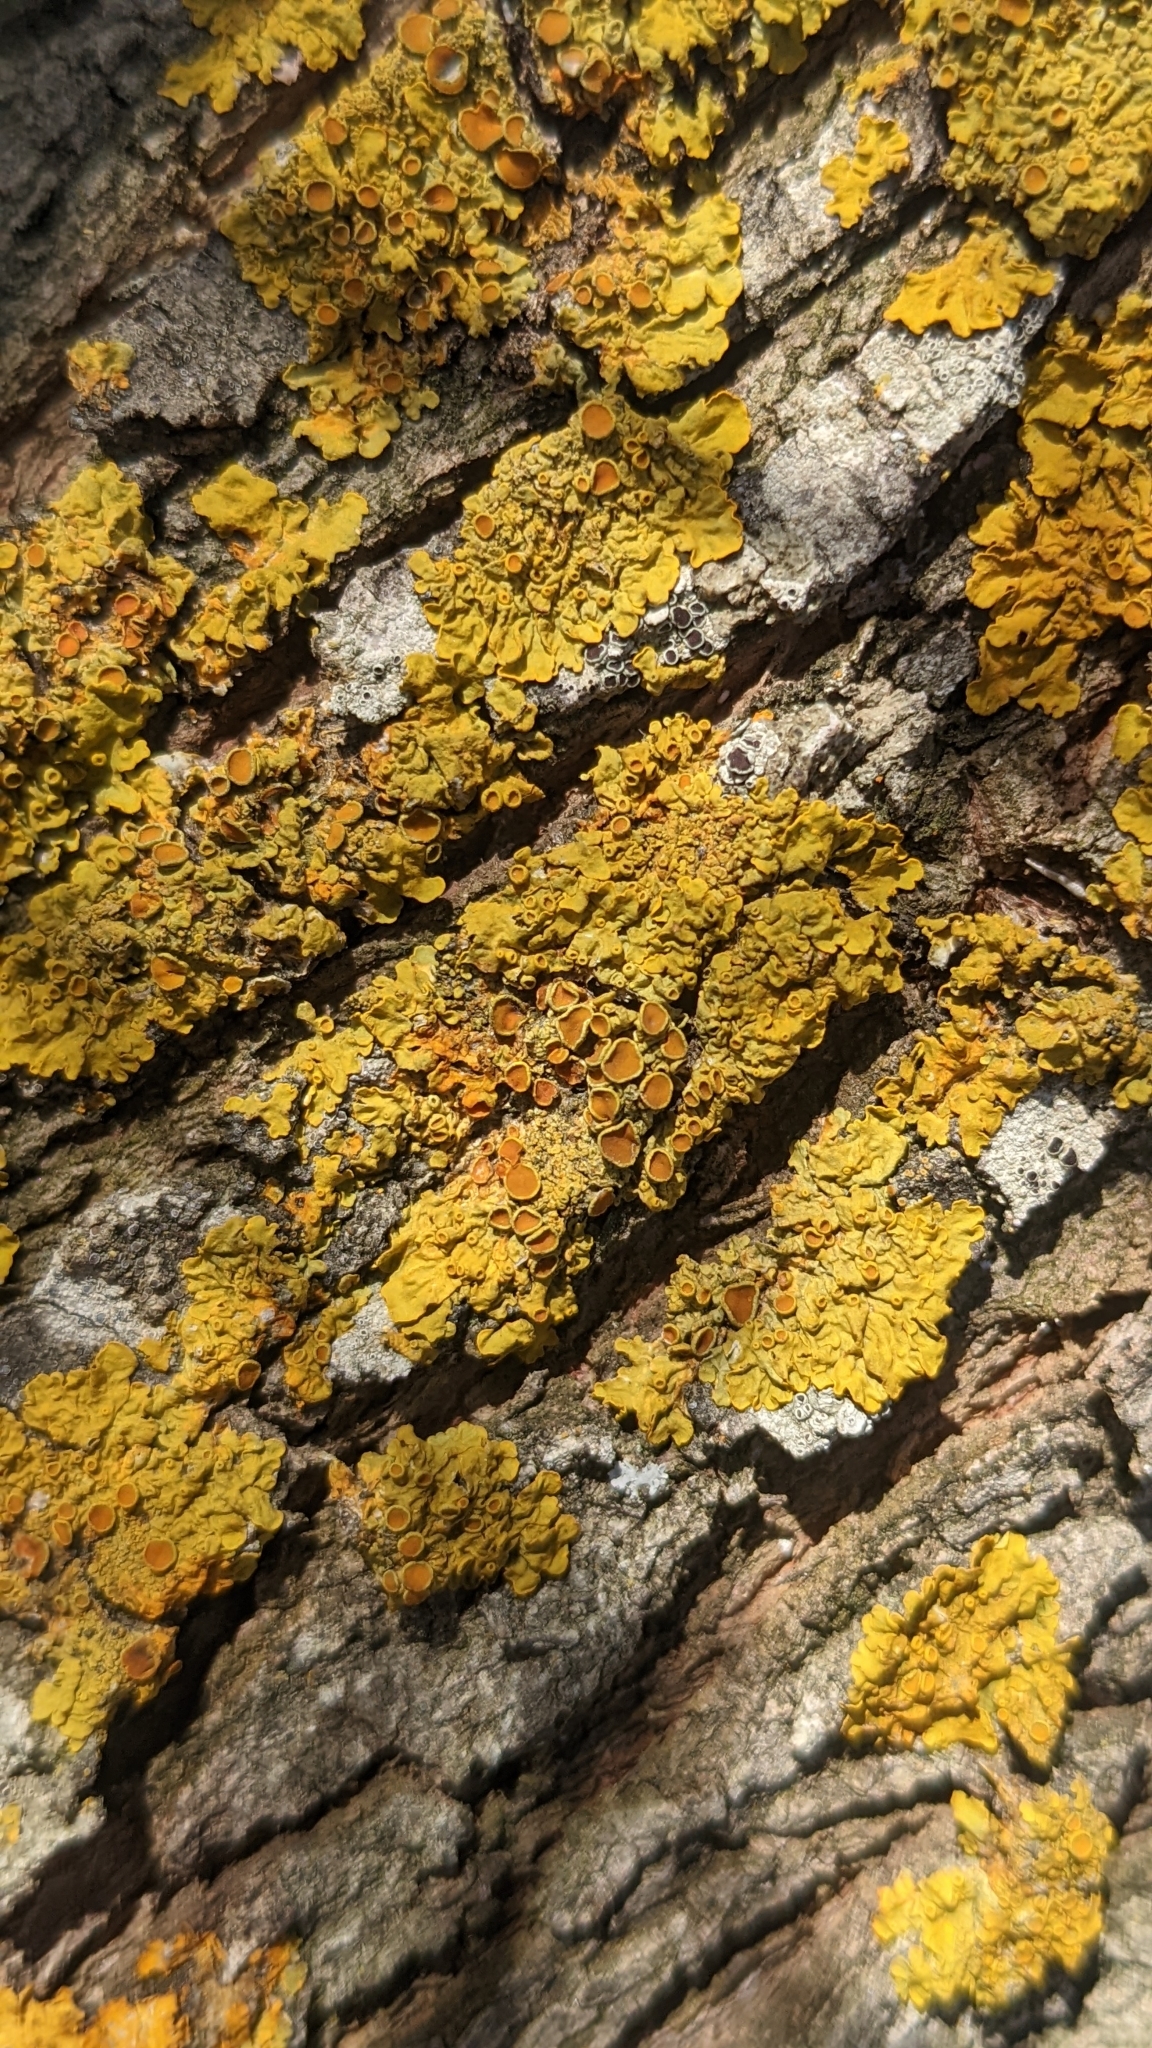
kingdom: Fungi
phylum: Ascomycota
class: Lecanoromycetes
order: Teloschistales
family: Teloschistaceae
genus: Xanthoria
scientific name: Xanthoria parietina
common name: Common orange lichen
